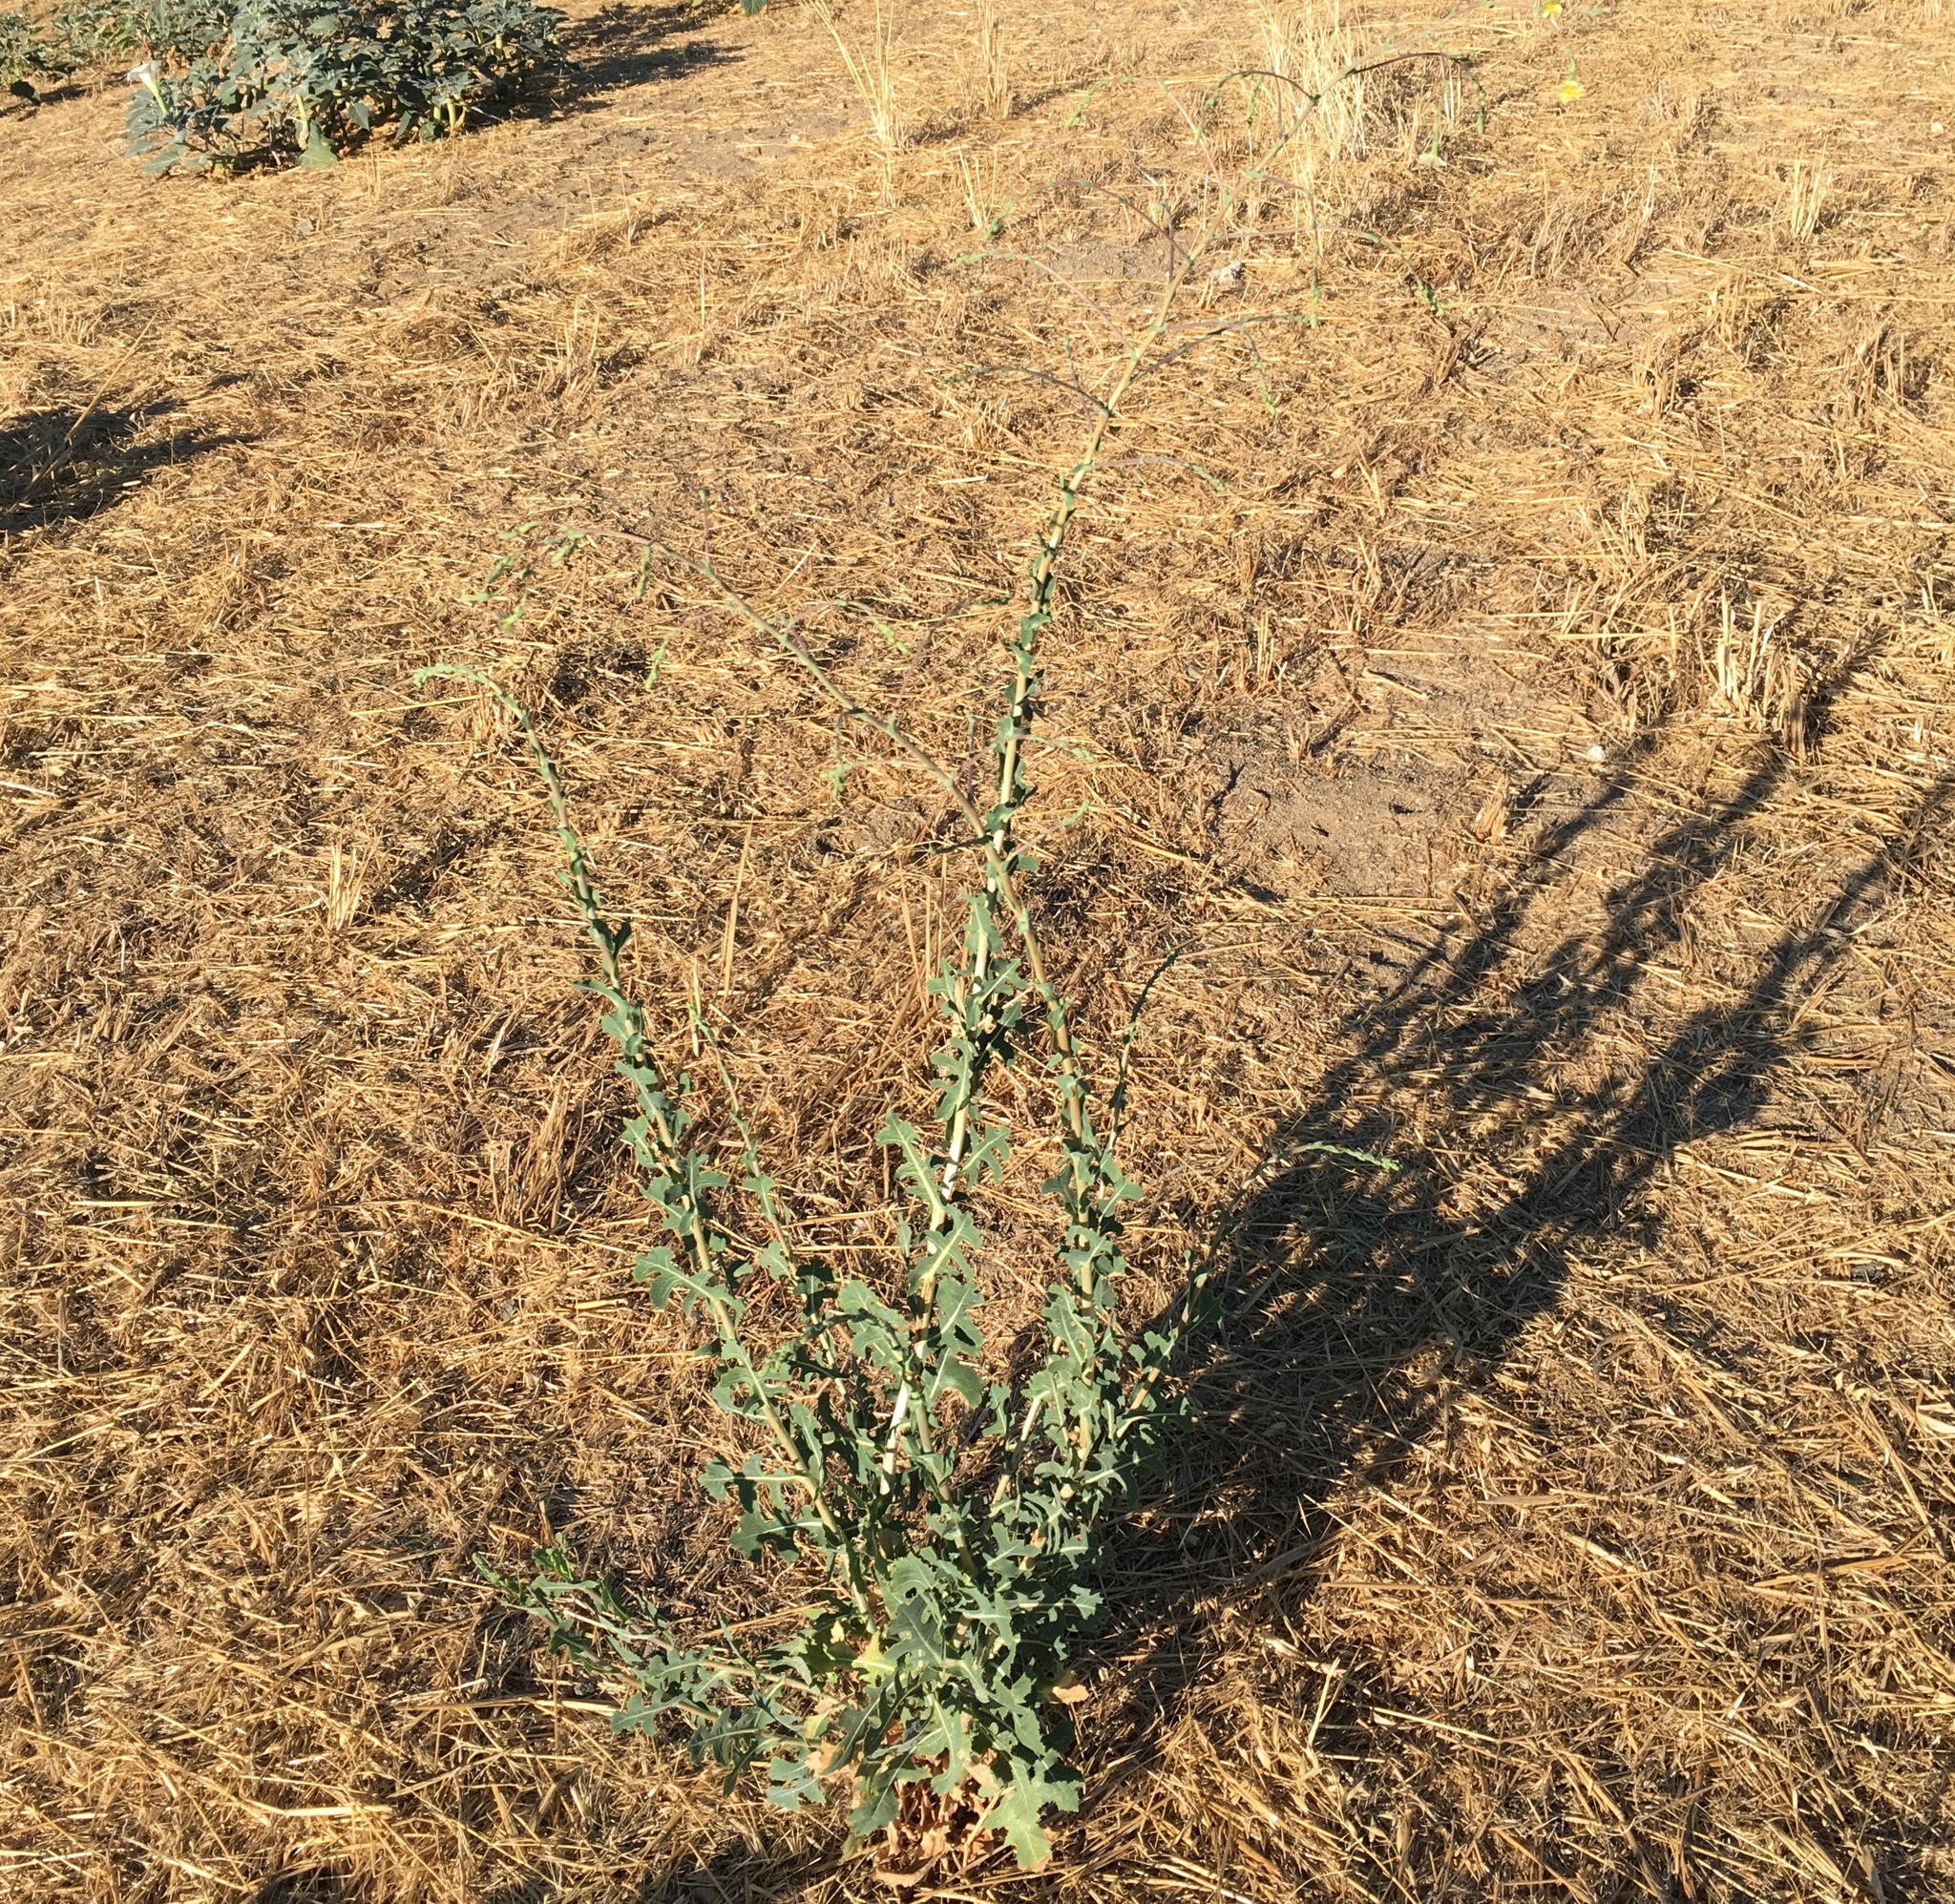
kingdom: Plantae
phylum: Tracheophyta
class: Magnoliopsida
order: Asterales
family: Asteraceae
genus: Lactuca
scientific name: Lactuca serriola
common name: Prickly lettuce
